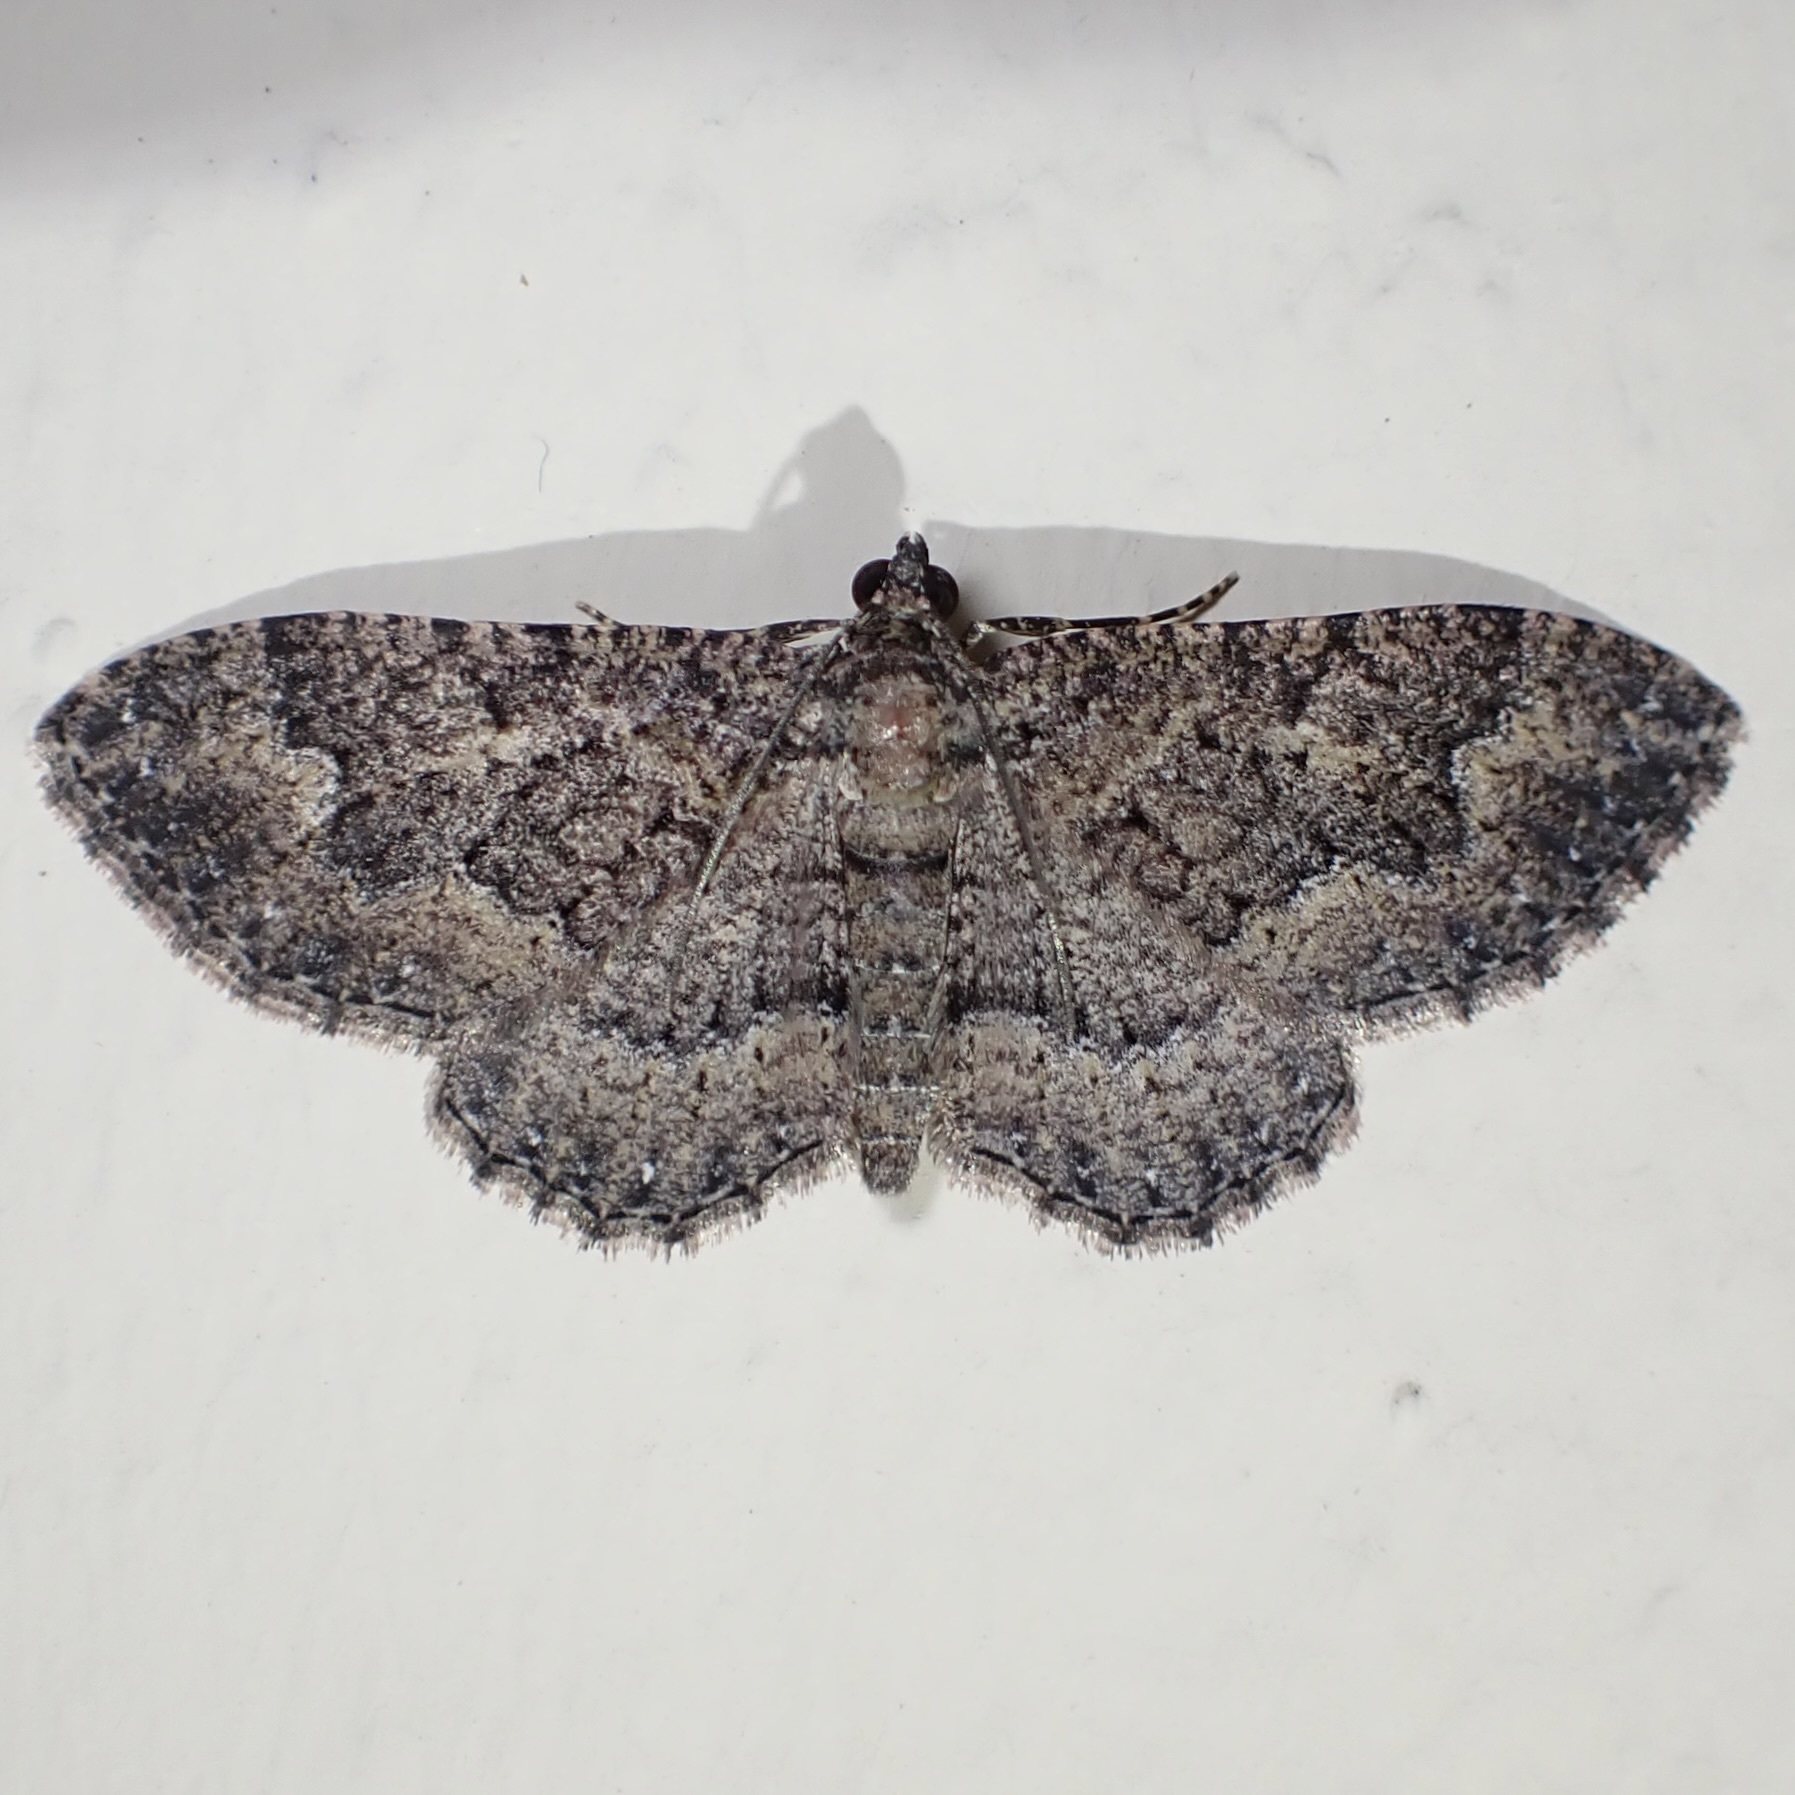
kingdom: Animalia
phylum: Arthropoda
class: Insecta
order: Lepidoptera
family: Geometridae
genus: Disclisioprocta
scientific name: Disclisioprocta stellata
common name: Somber carpet
